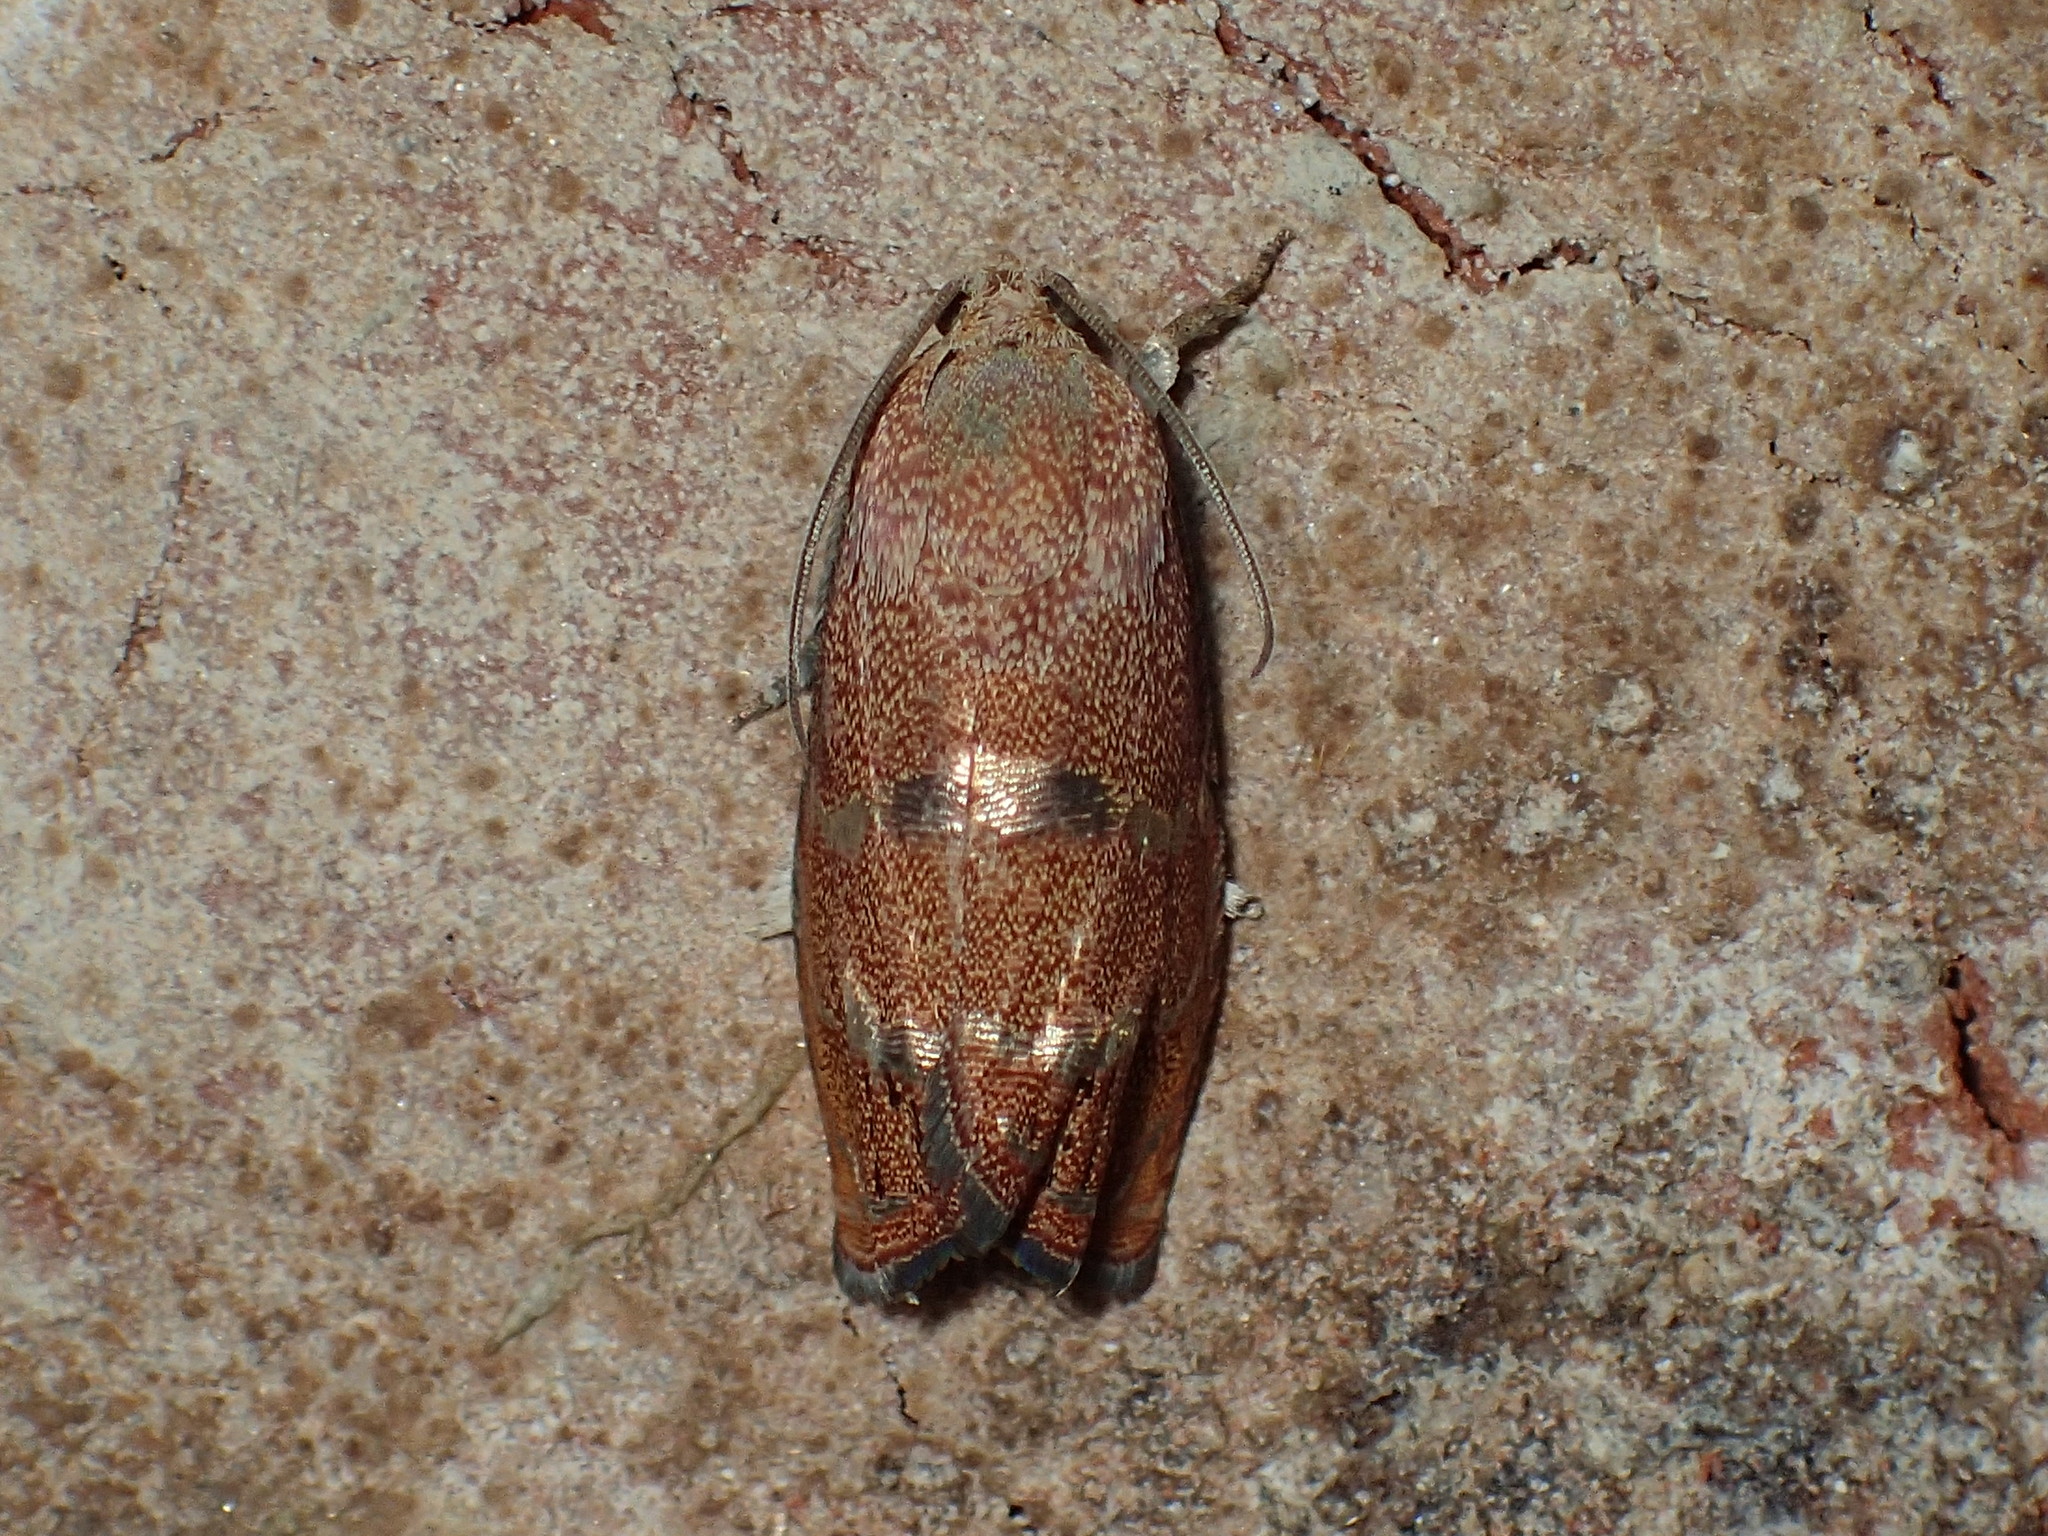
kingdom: Animalia
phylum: Arthropoda
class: Insecta
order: Lepidoptera
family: Tortricidae
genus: Cydia
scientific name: Cydia latiferreana
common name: Filbertworm moth
